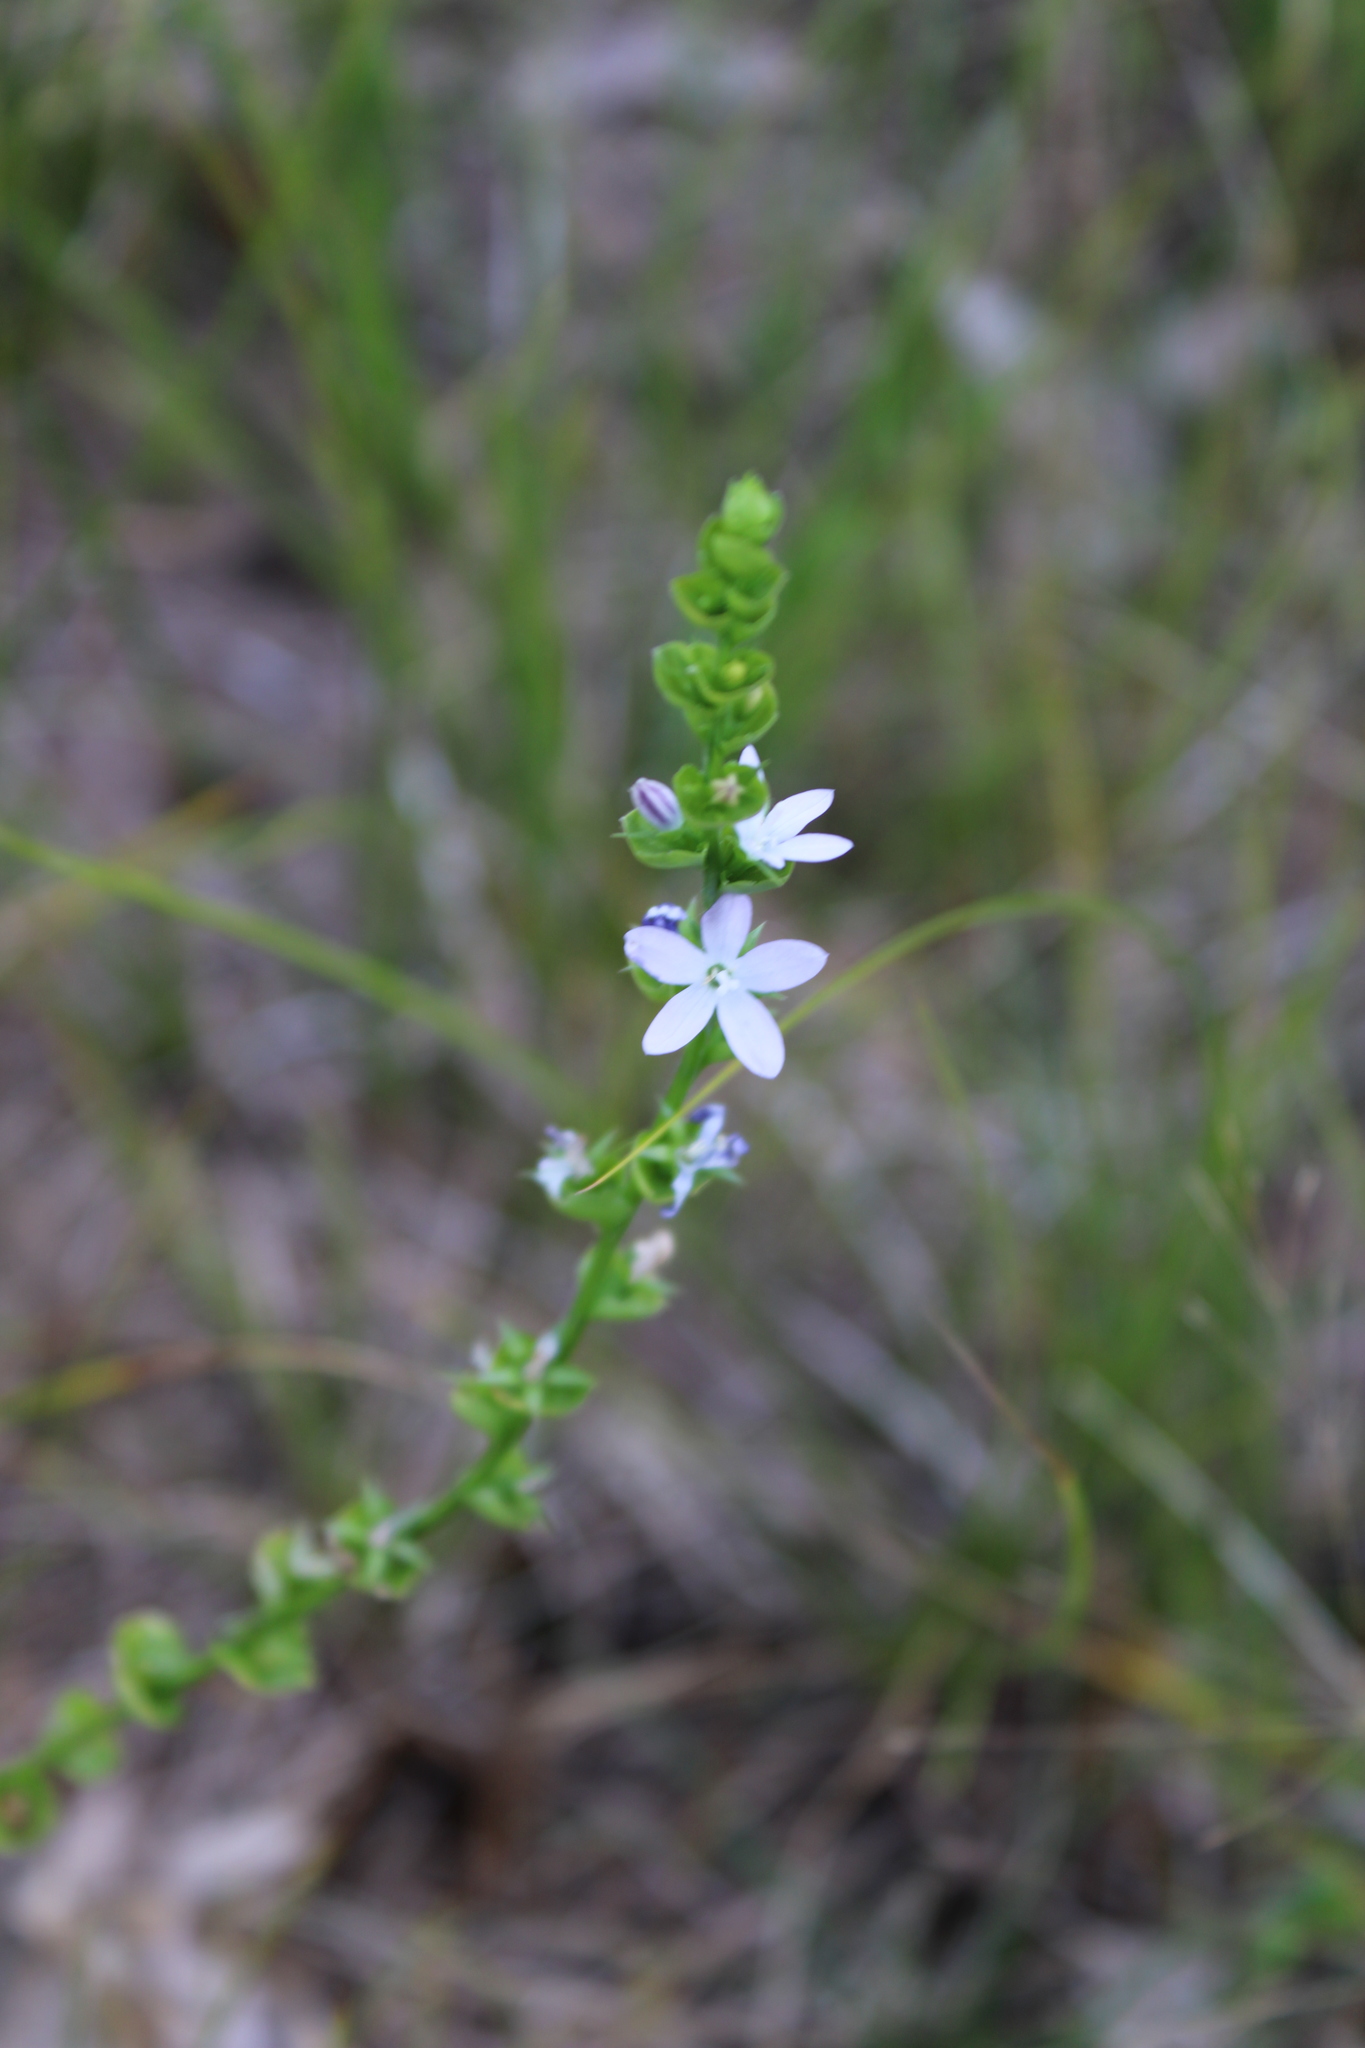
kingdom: Plantae
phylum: Tracheophyta
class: Magnoliopsida
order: Asterales
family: Campanulaceae
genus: Triodanis
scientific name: Triodanis perfoliata
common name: Clasping venus' looking-glass
